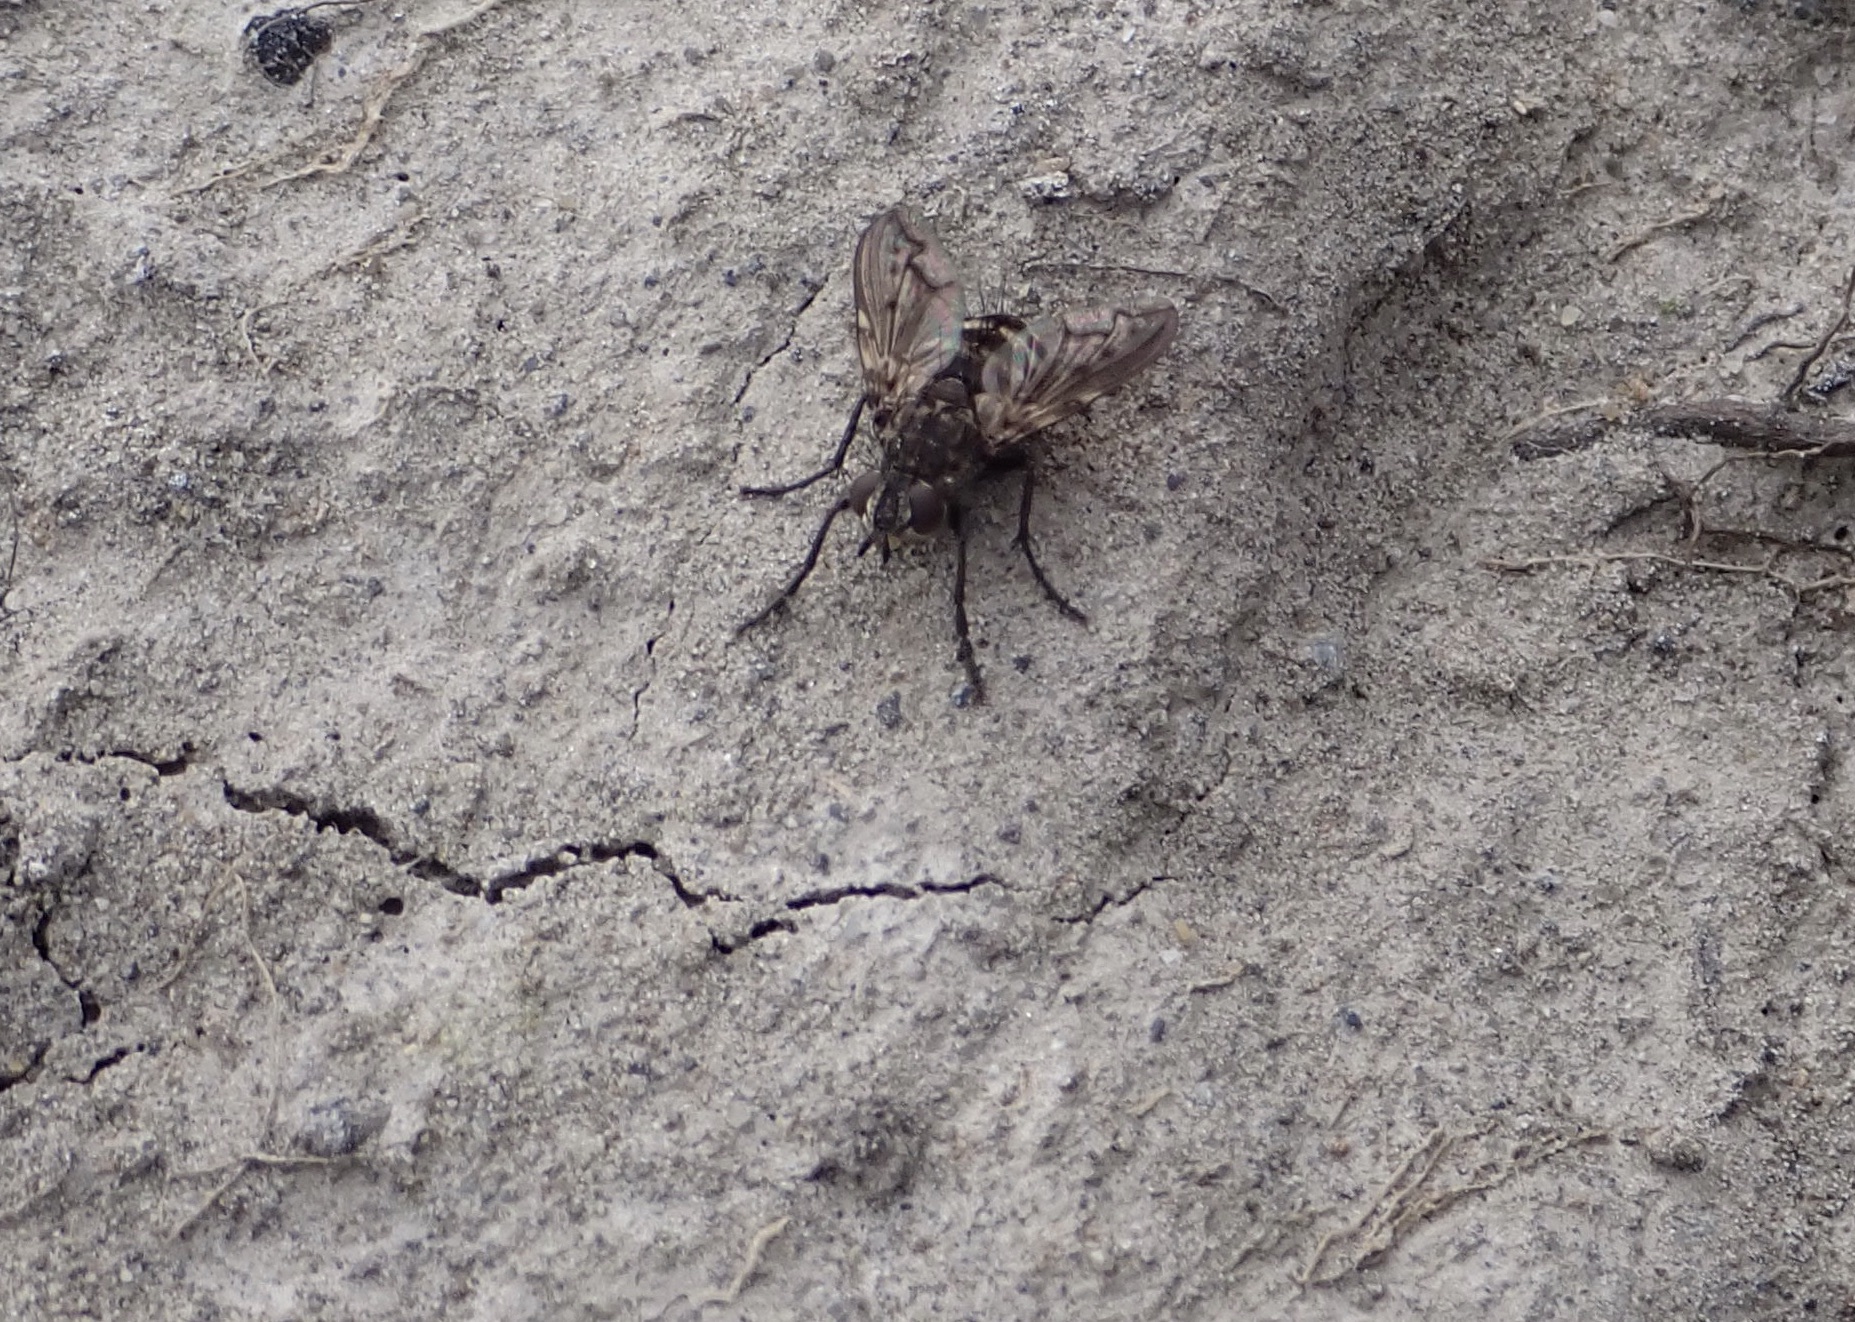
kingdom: Animalia
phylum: Arthropoda
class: Insecta
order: Diptera
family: Tachinidae
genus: Mallochomacquartia
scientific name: Mallochomacquartia vexata
